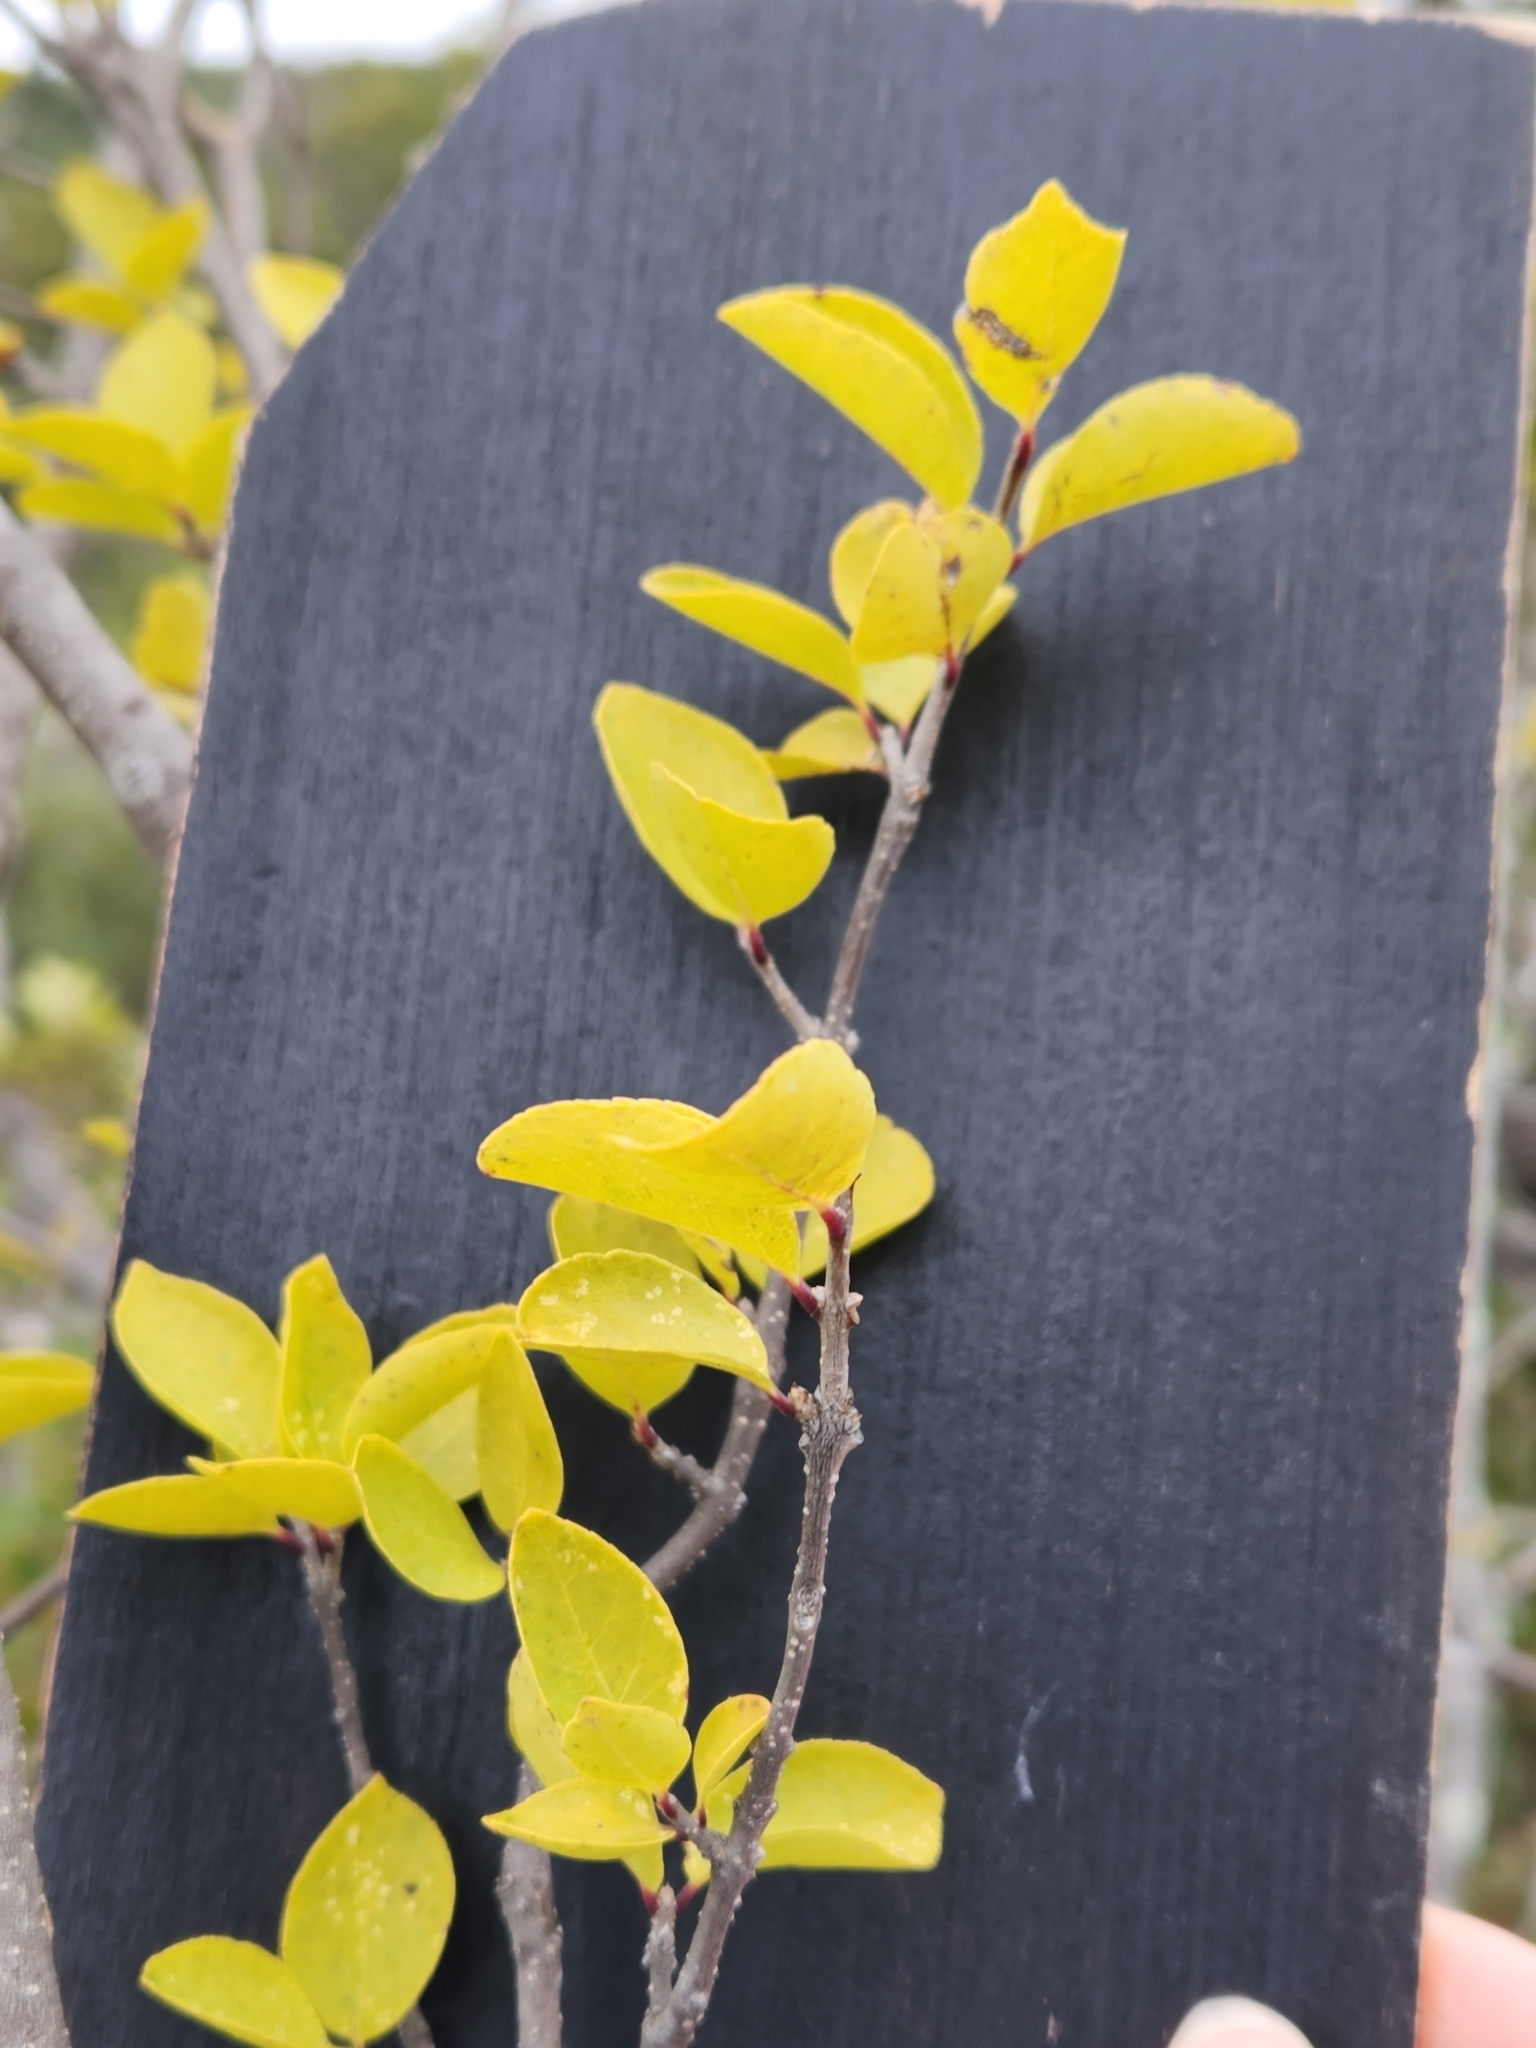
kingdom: Plantae
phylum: Tracheophyta
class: Magnoliopsida
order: Lamiales
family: Oleaceae
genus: Forestiera
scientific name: Forestiera reticulata
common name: Netleaf swamp-privet
